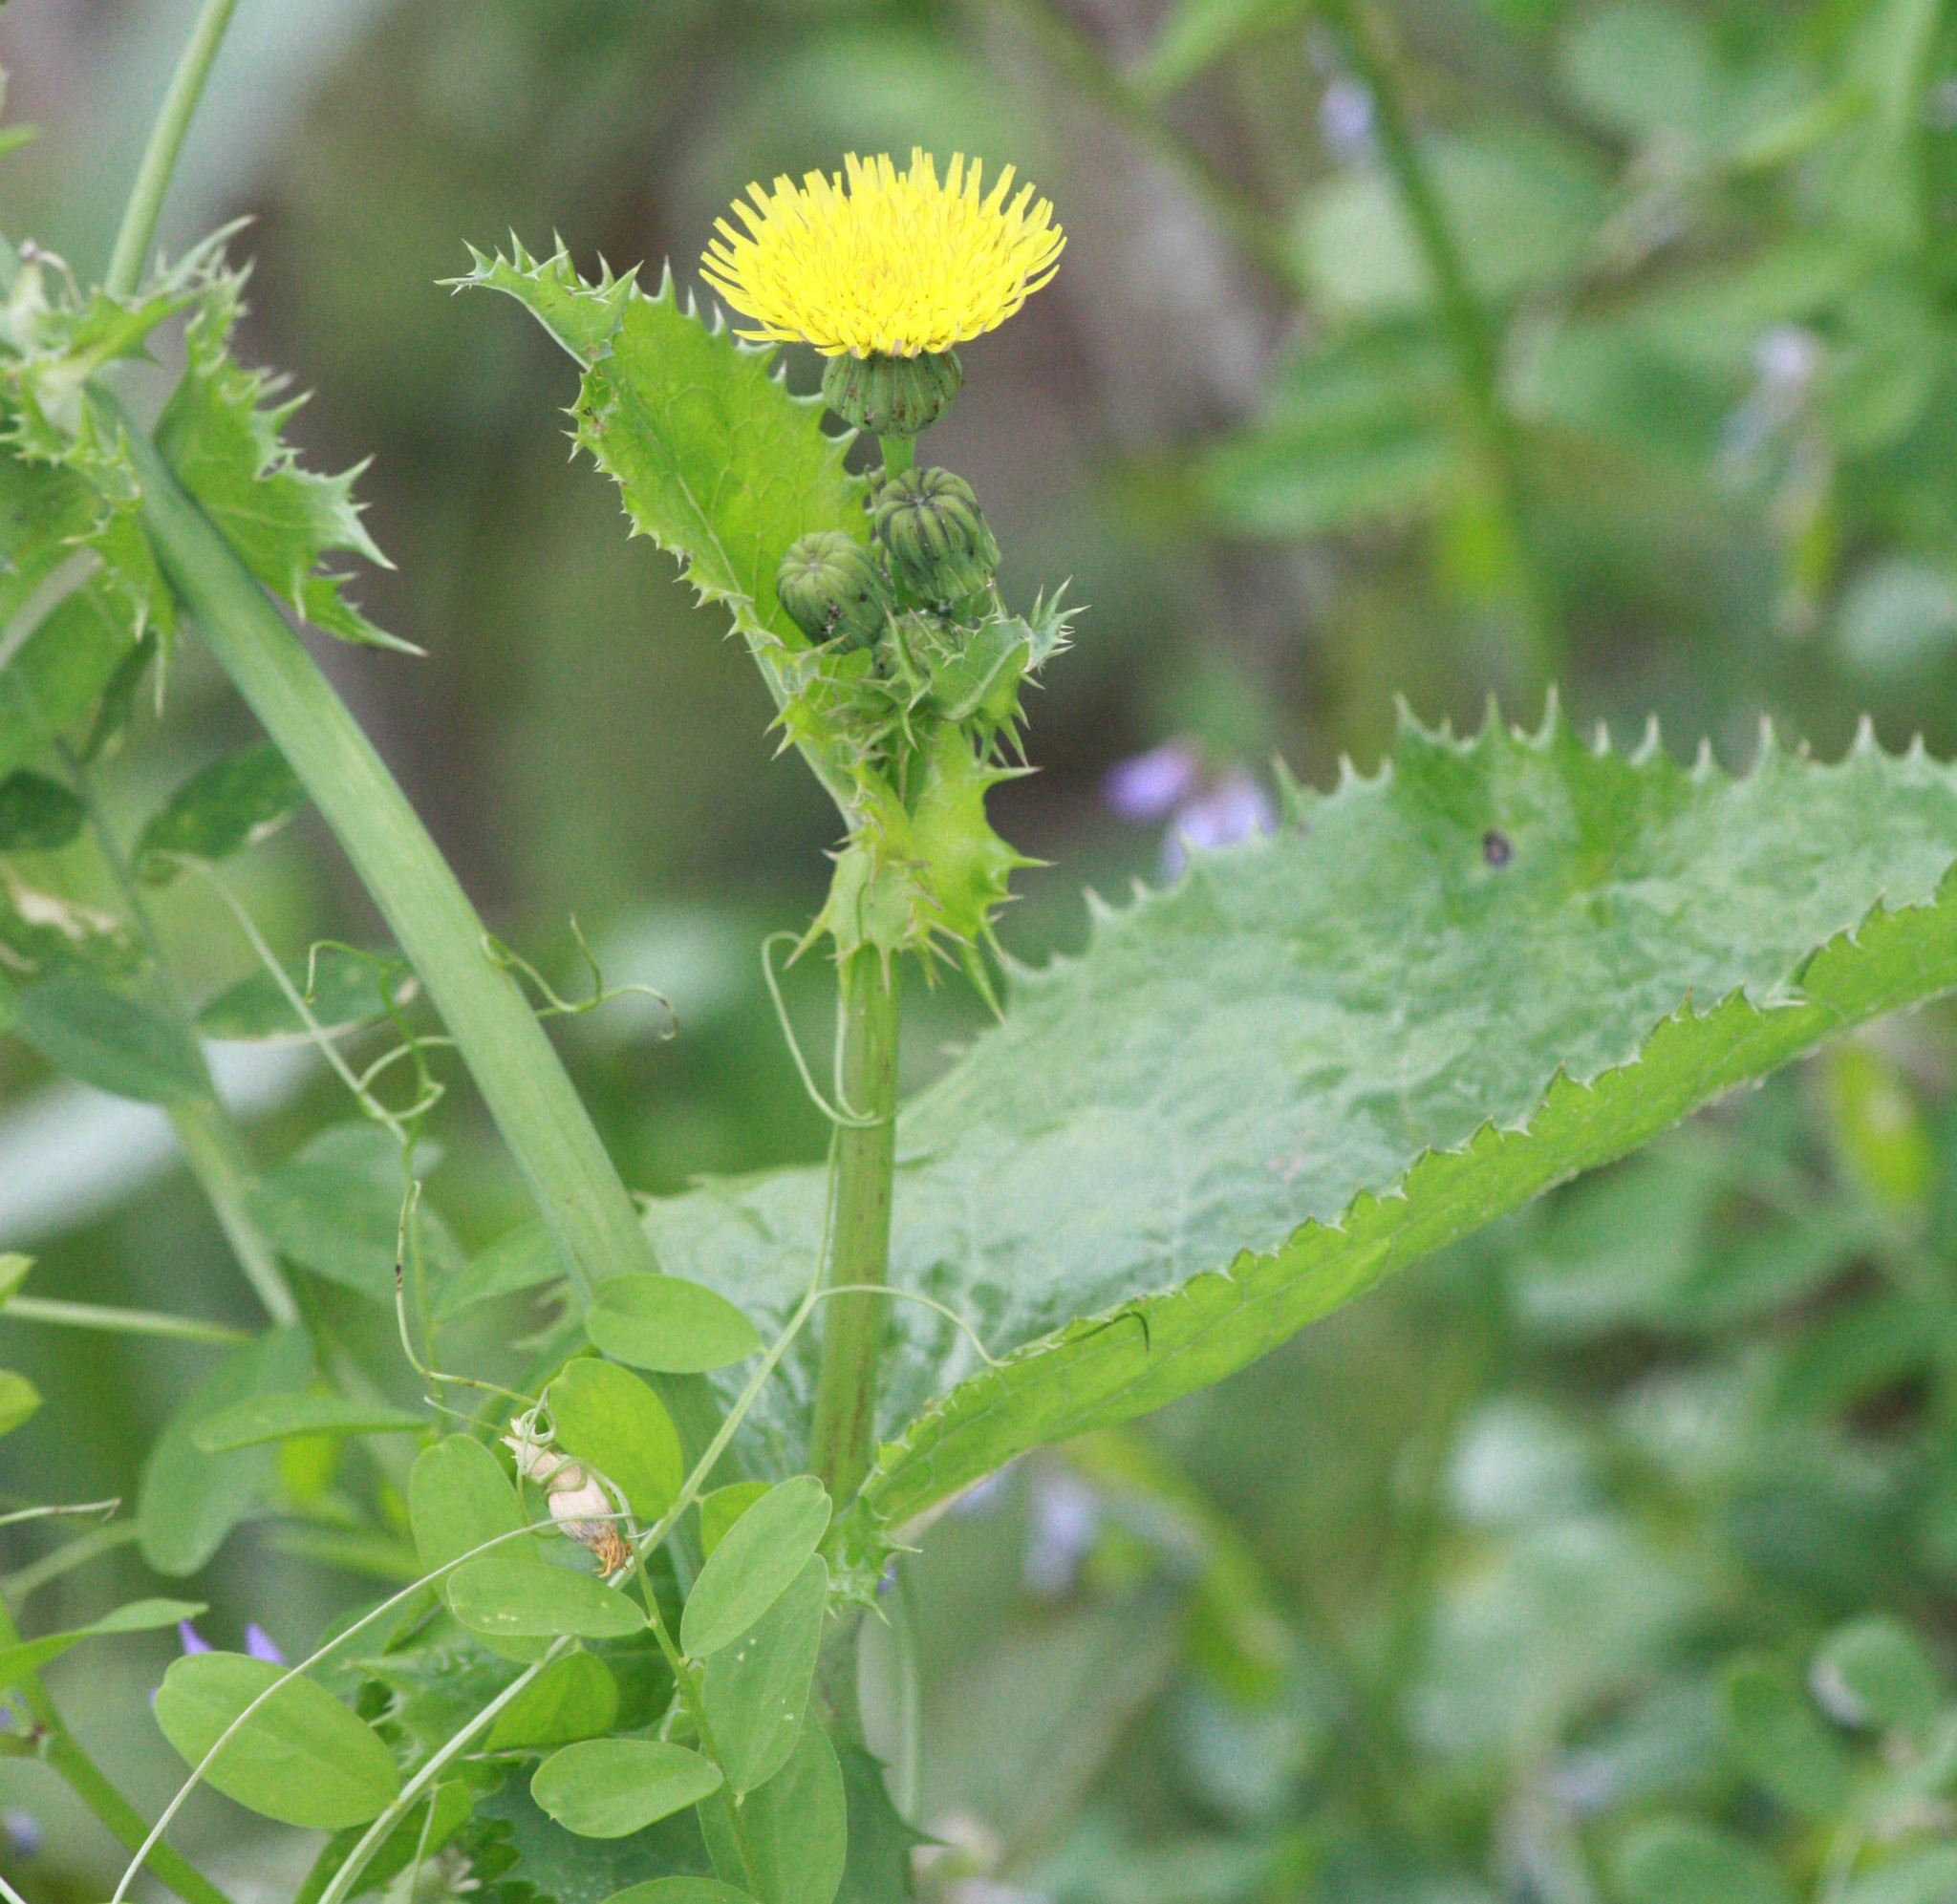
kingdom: Plantae
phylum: Tracheophyta
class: Magnoliopsida
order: Asterales
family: Asteraceae
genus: Sonchus
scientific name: Sonchus oleraceus
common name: Common sowthistle
